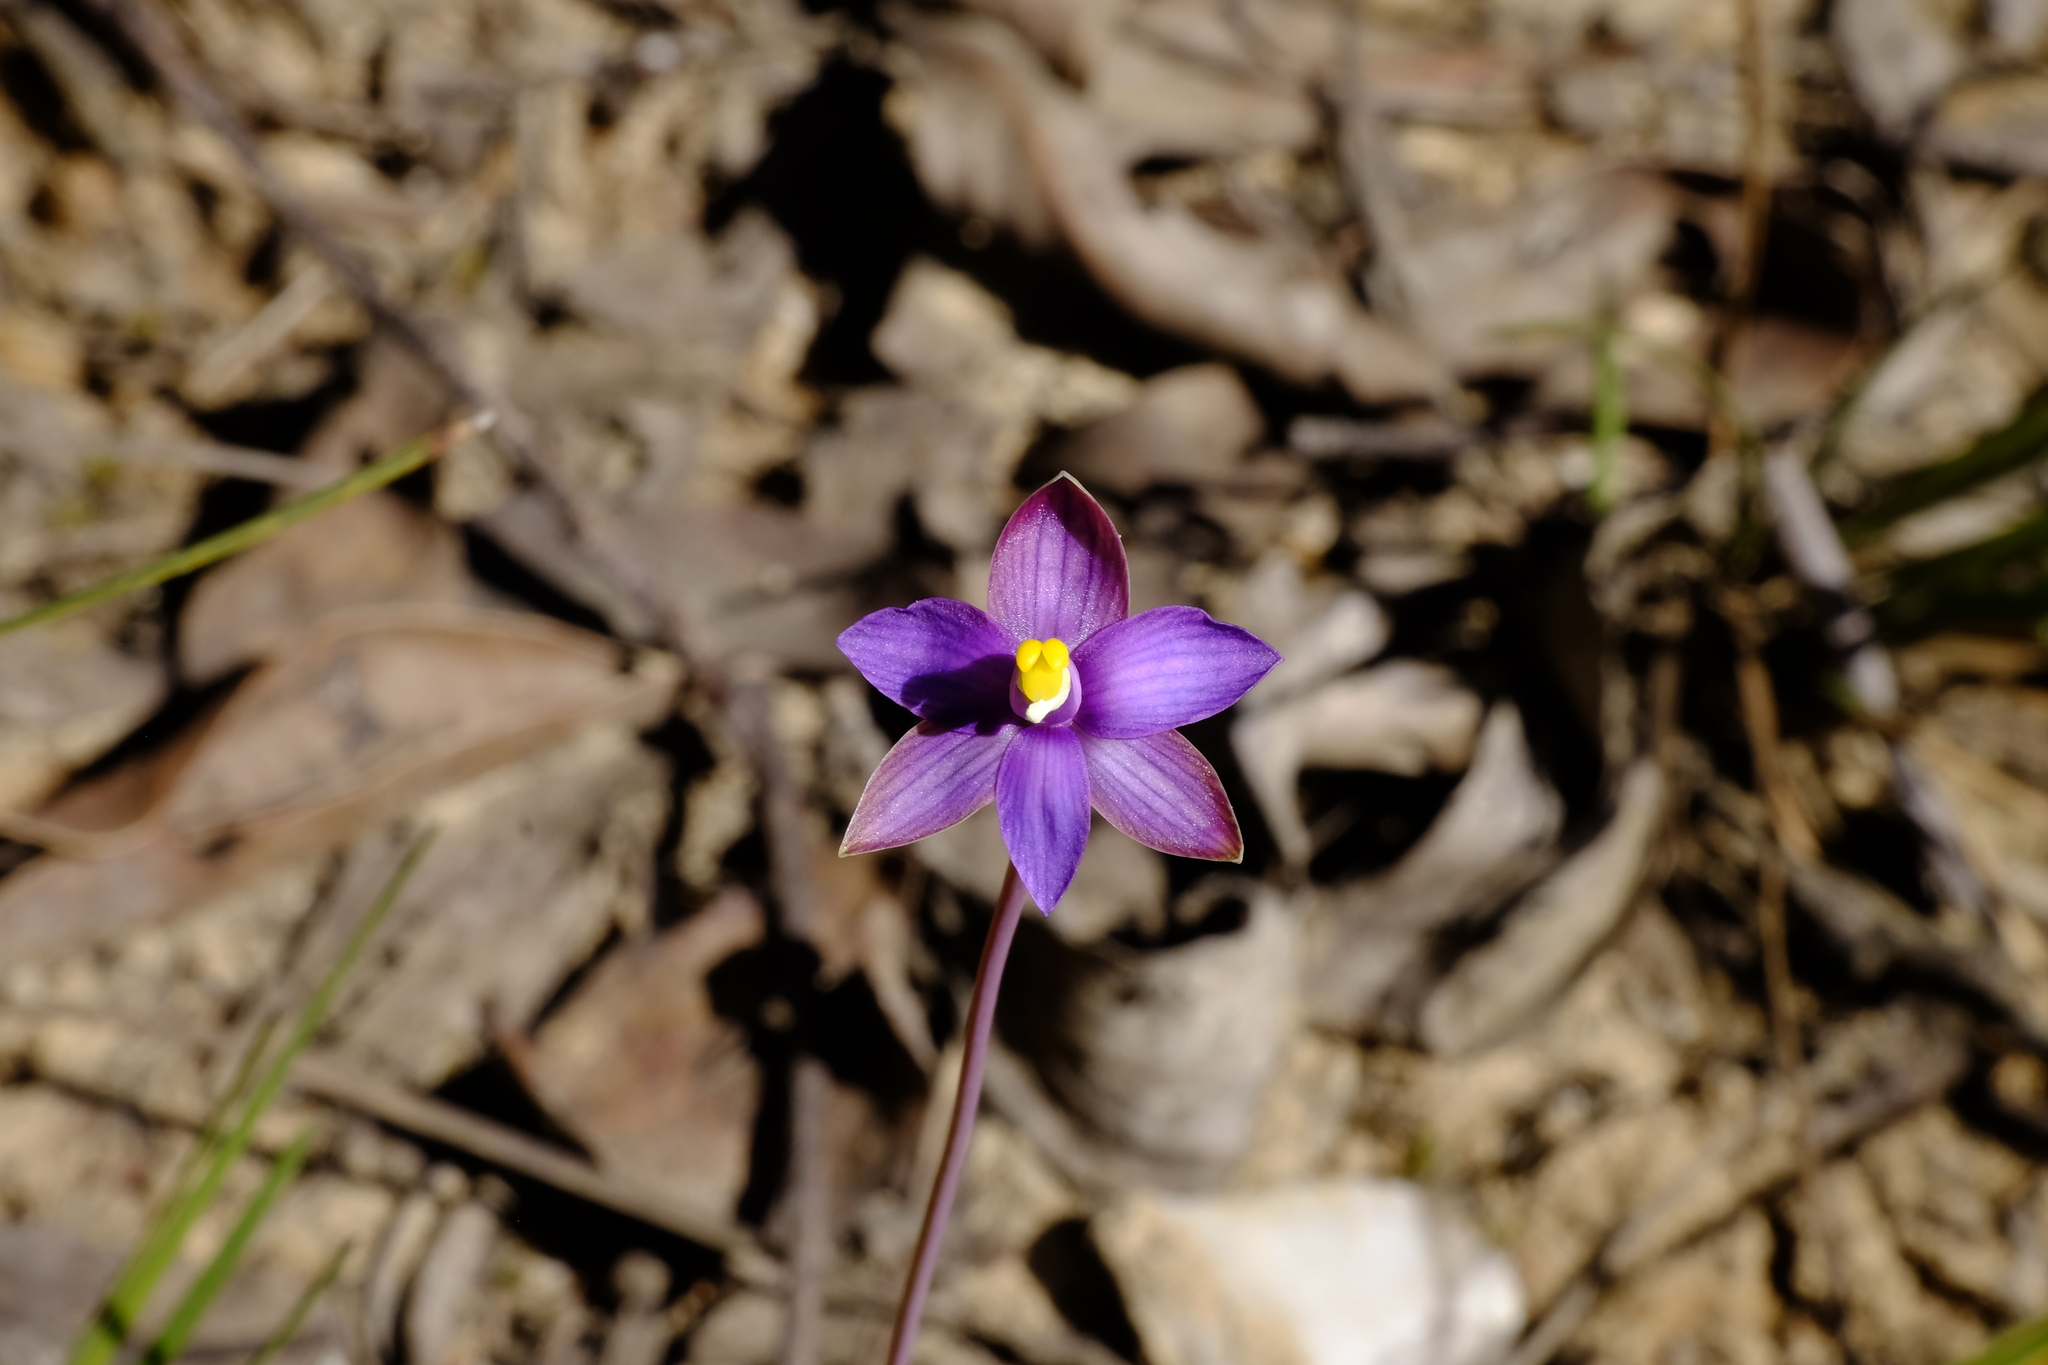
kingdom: Plantae
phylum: Tracheophyta
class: Liliopsida
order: Asparagales
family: Orchidaceae
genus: Thelymitra
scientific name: Thelymitra matthewsii
